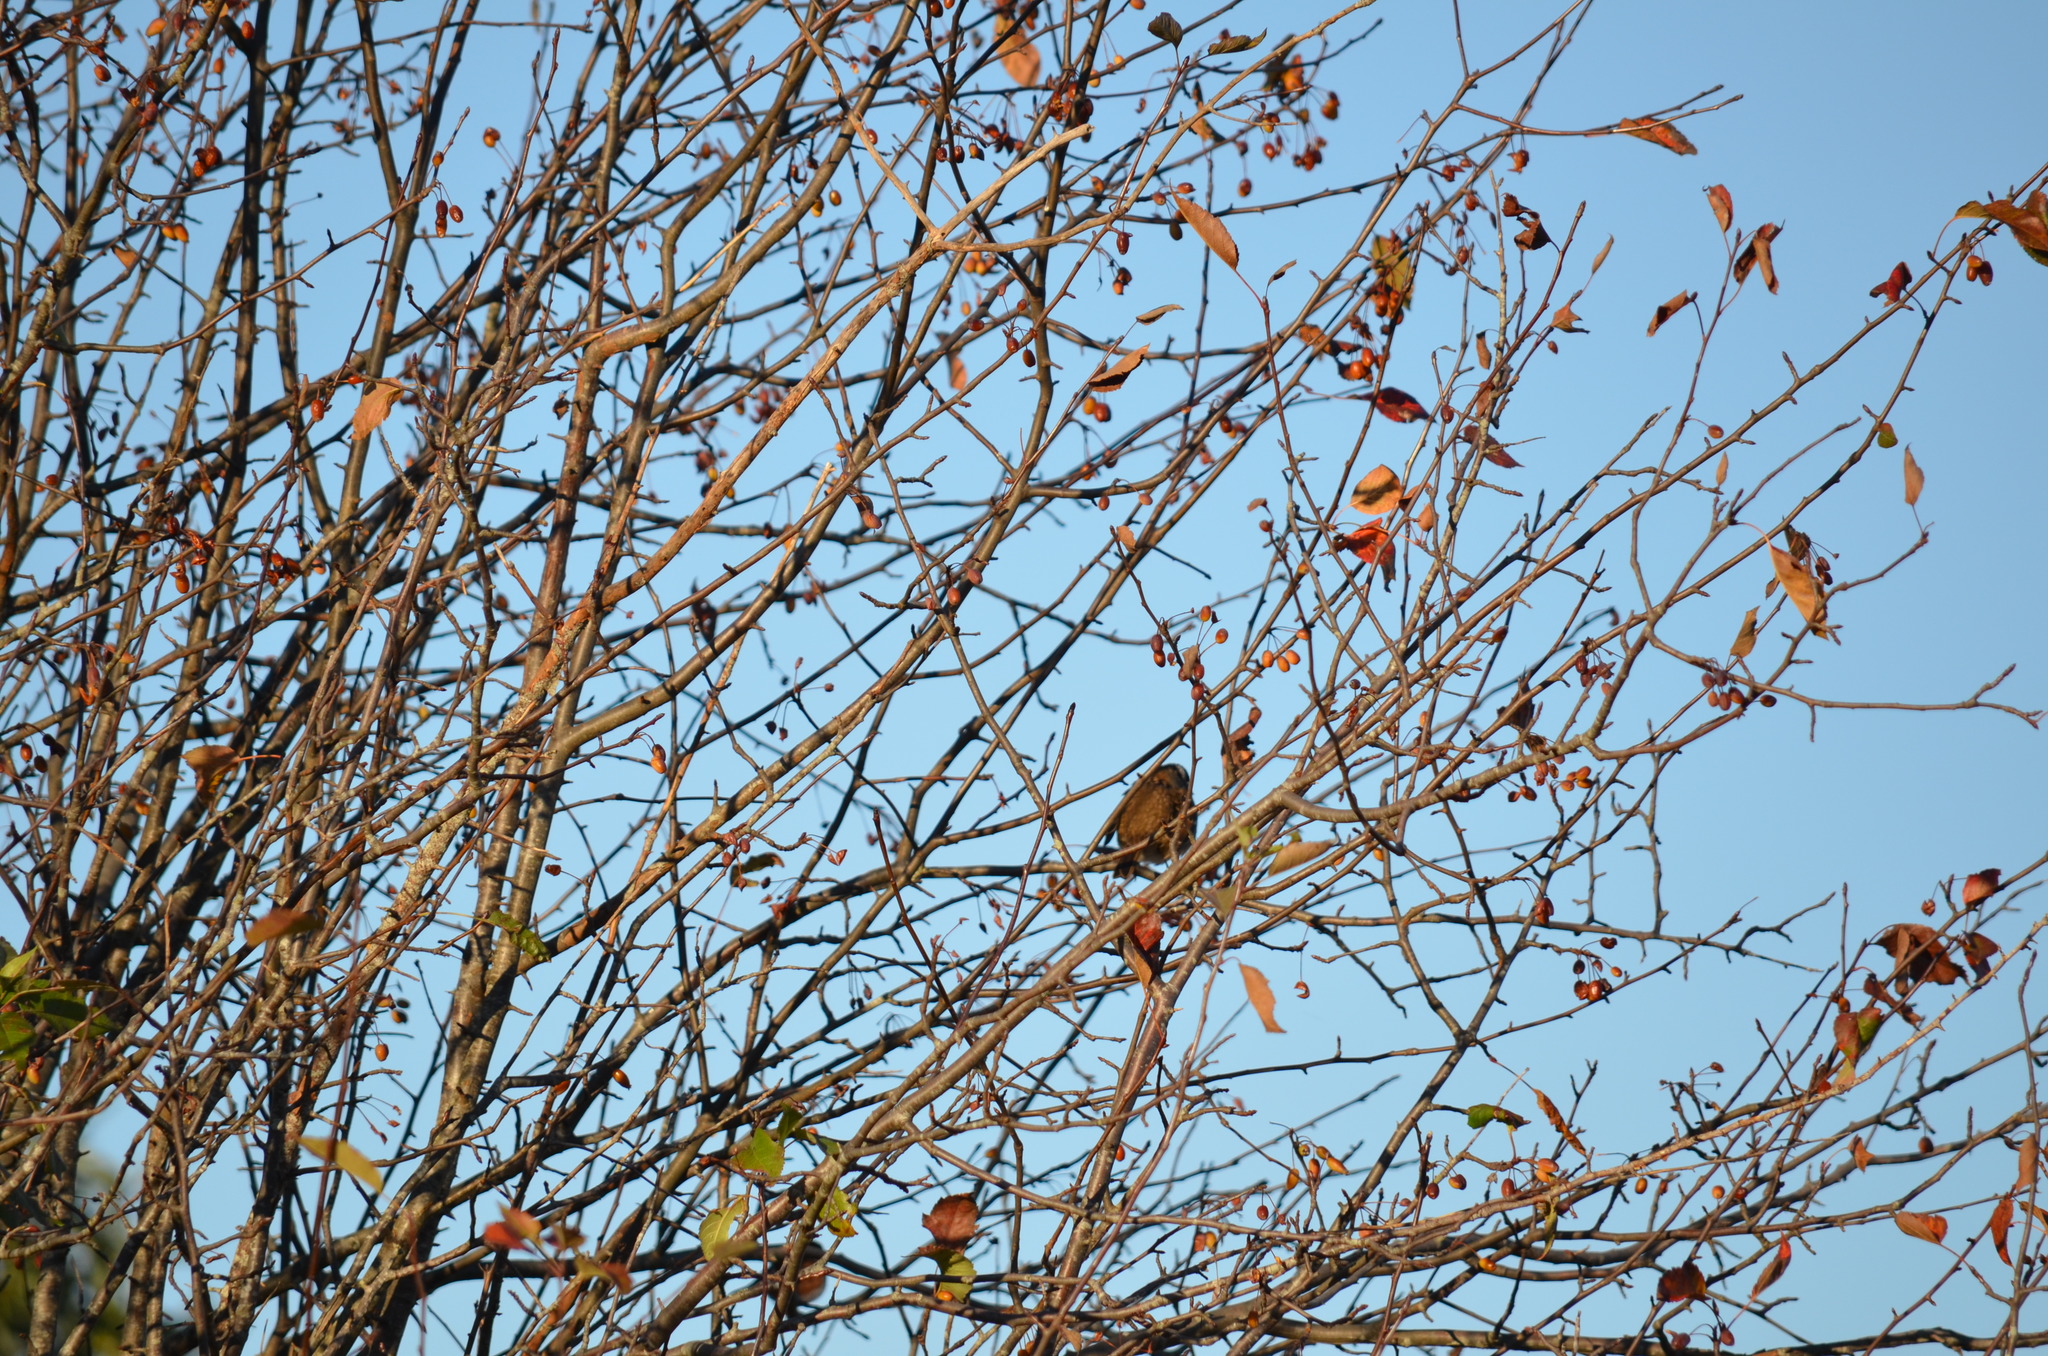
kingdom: Animalia
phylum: Chordata
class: Aves
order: Passeriformes
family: Passerellidae
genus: Zonotrichia
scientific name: Zonotrichia leucophrys
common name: White-crowned sparrow
